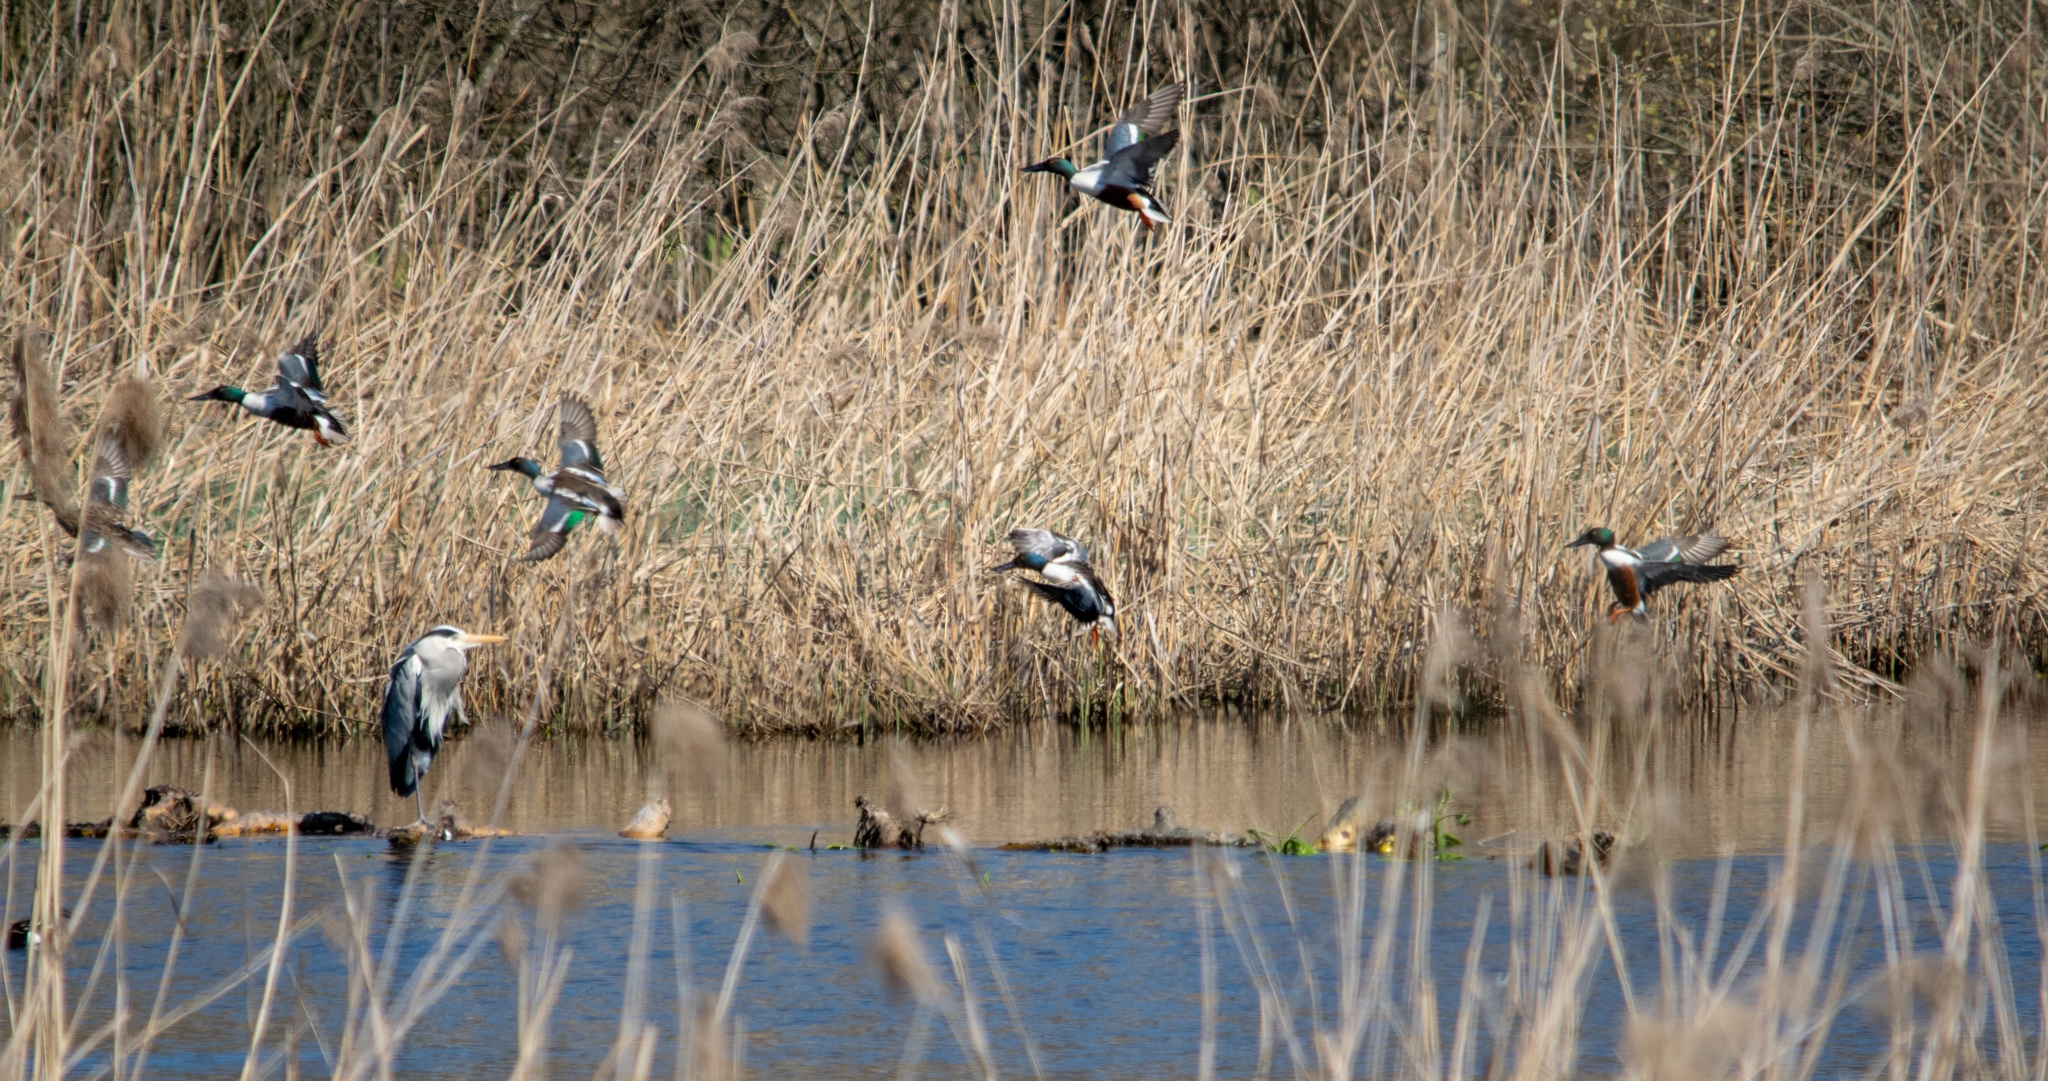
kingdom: Animalia
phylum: Chordata
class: Aves
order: Anseriformes
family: Anatidae
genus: Spatula
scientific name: Spatula clypeata
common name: Northern shoveler
